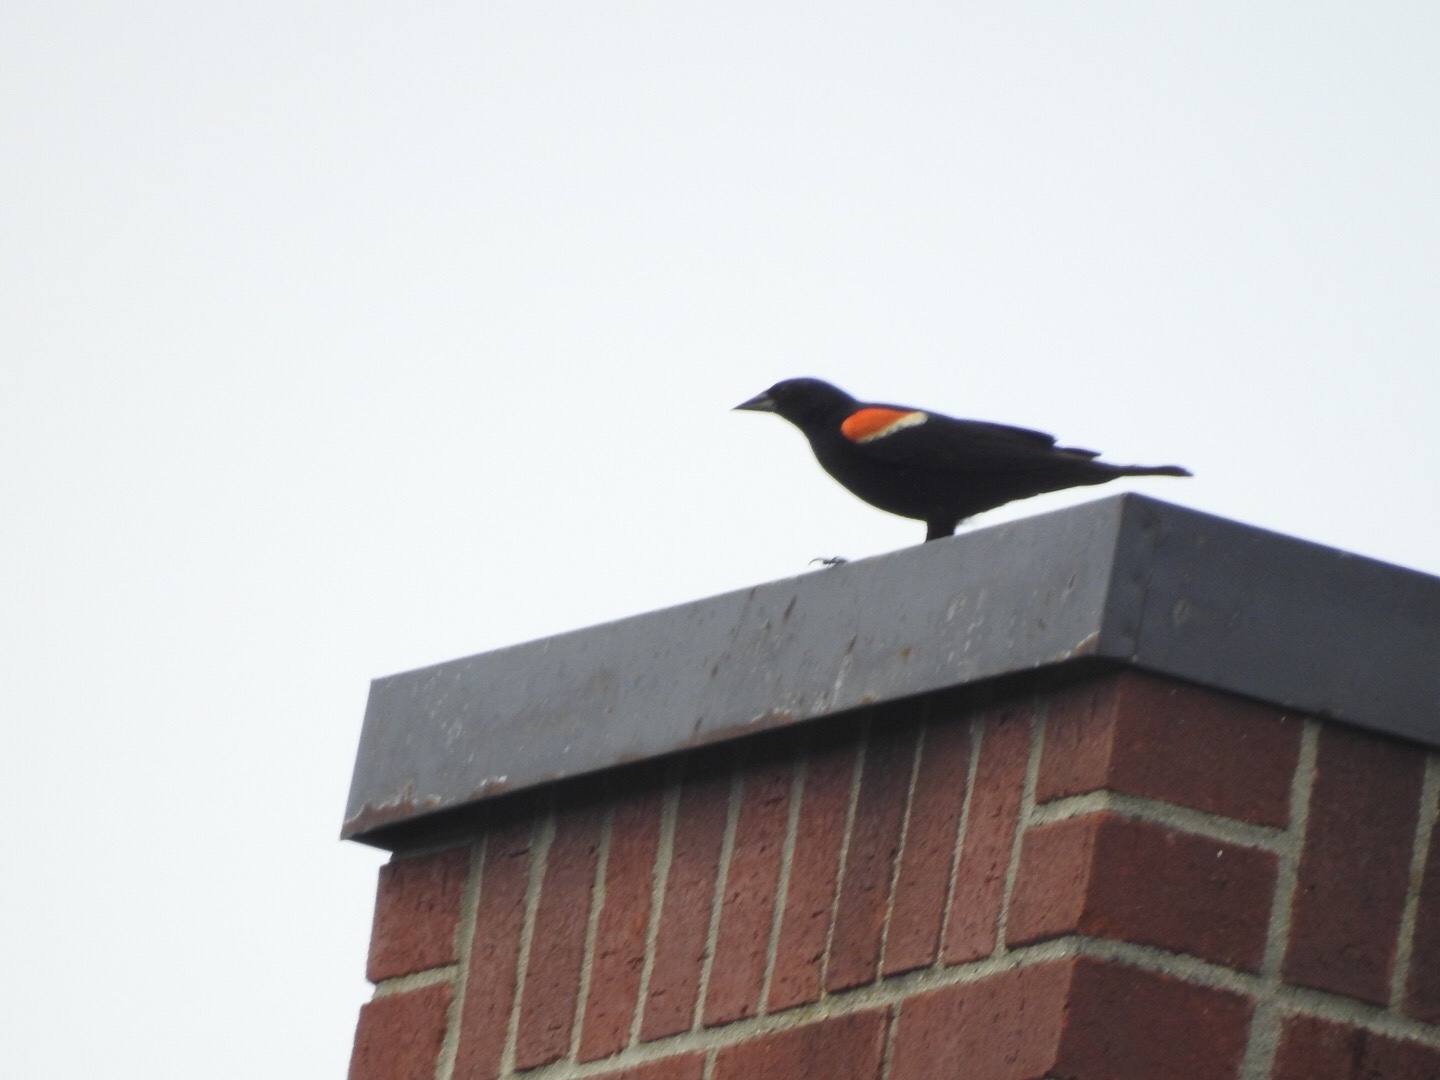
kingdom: Animalia
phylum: Chordata
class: Aves
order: Passeriformes
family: Icteridae
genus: Agelaius
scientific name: Agelaius phoeniceus
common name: Red-winged blackbird
